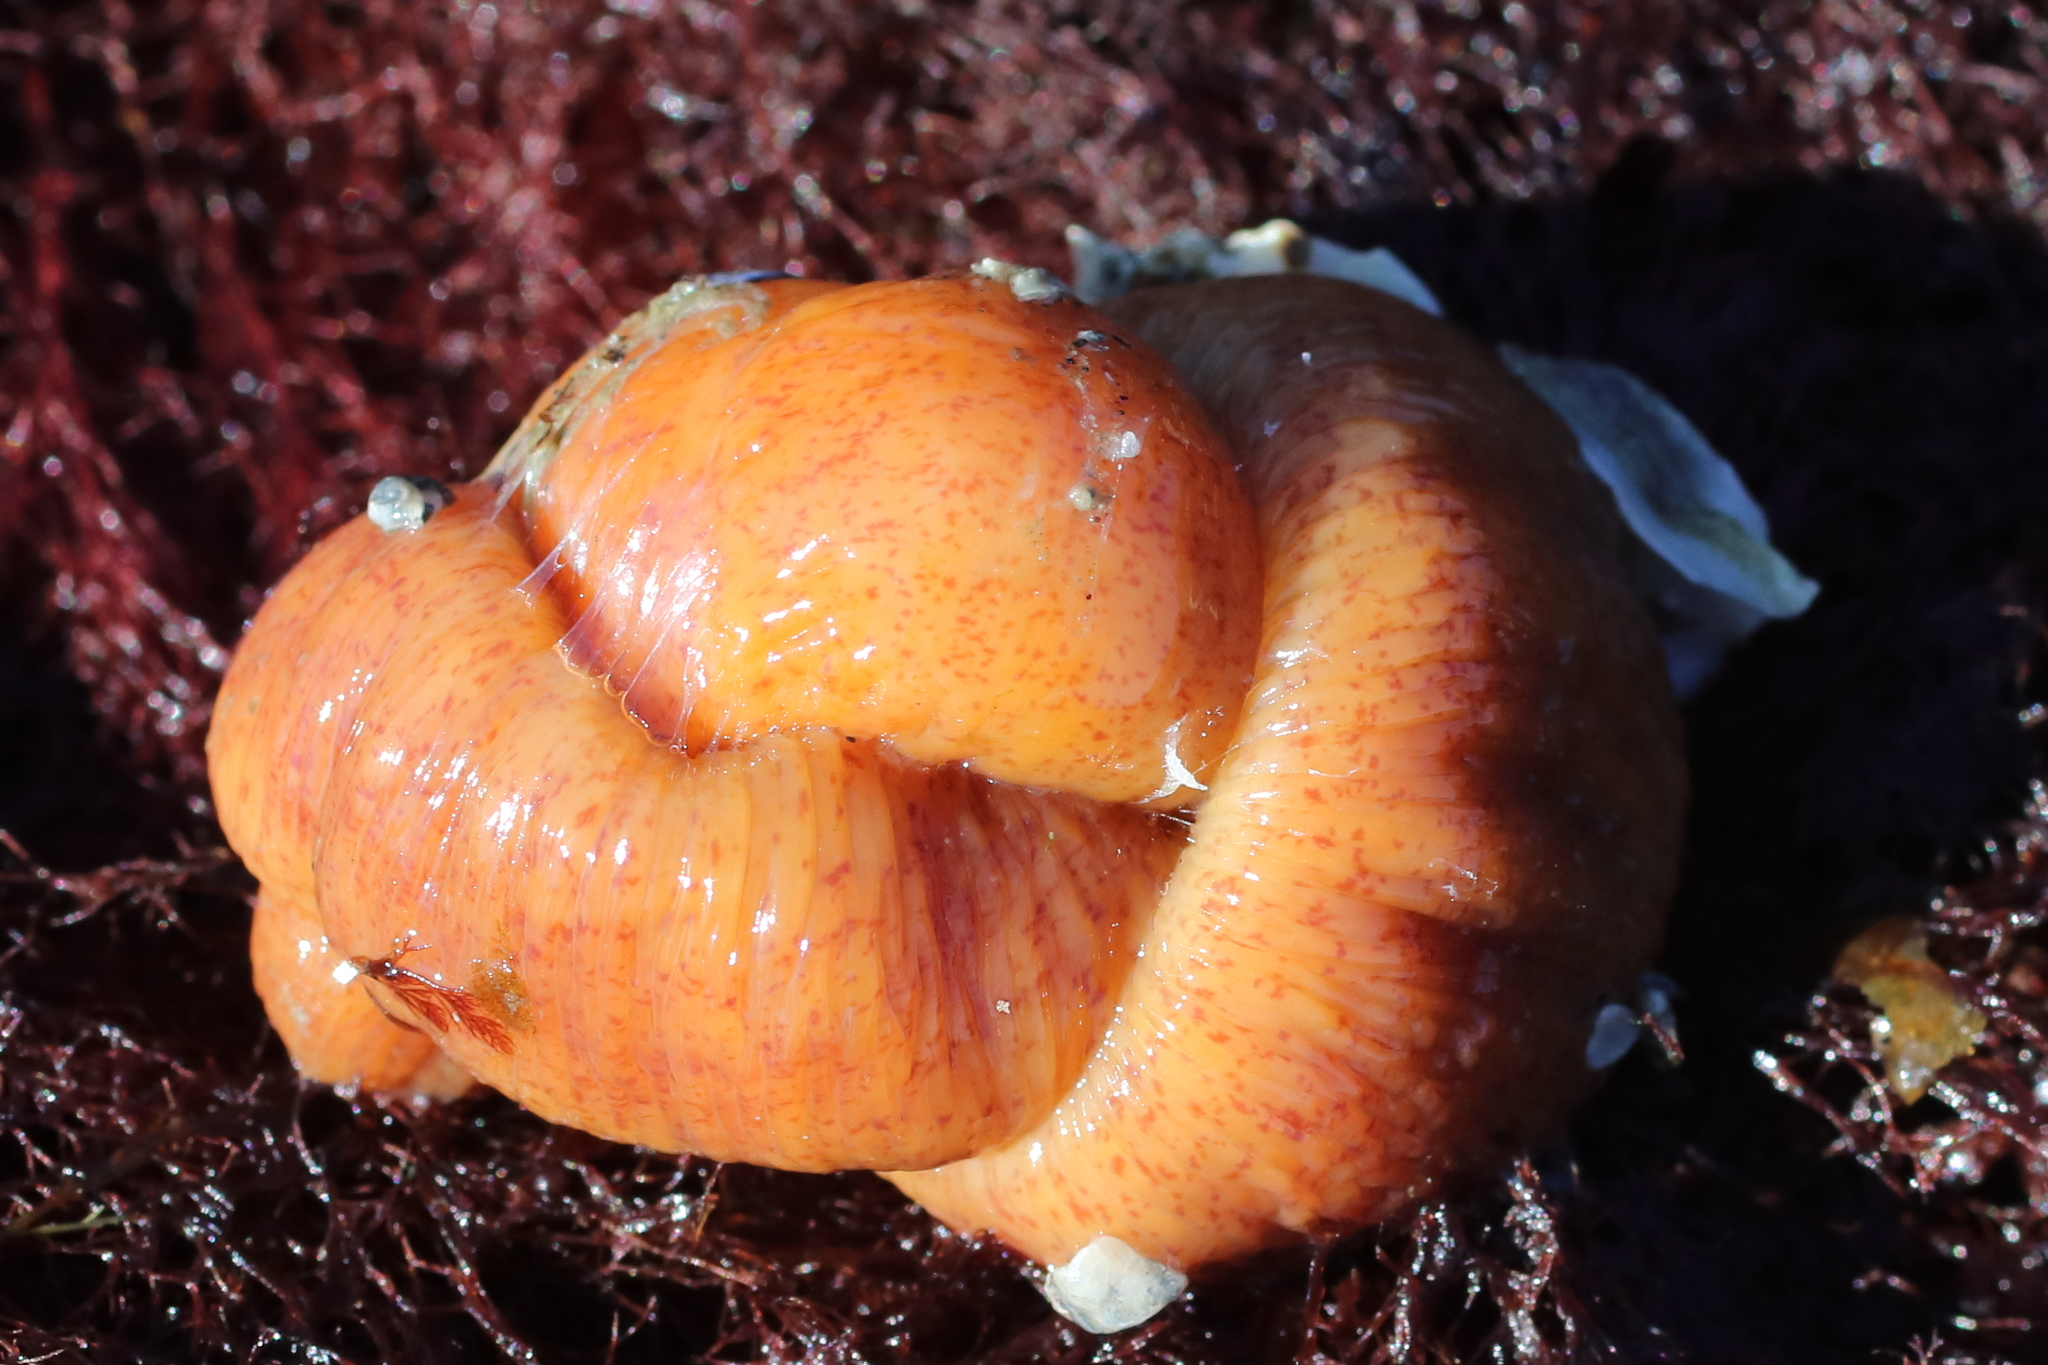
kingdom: Animalia
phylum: Nemertea
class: Palaeonemertea
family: Tubulanidae
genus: Tubulanus
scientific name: Tubulanus polymorphus
